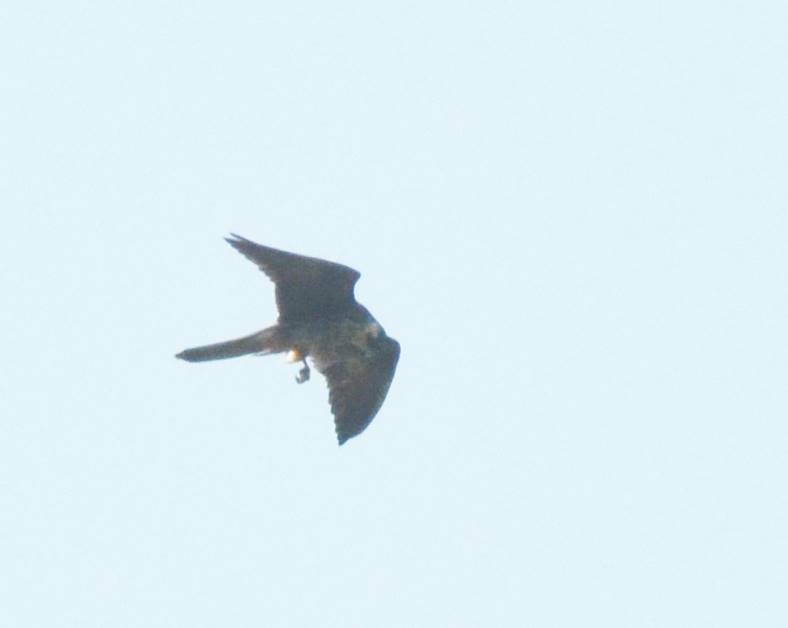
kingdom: Animalia
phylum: Chordata
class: Aves
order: Falconiformes
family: Falconidae
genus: Falco
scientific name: Falco subbuteo
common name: Eurasian hobby
